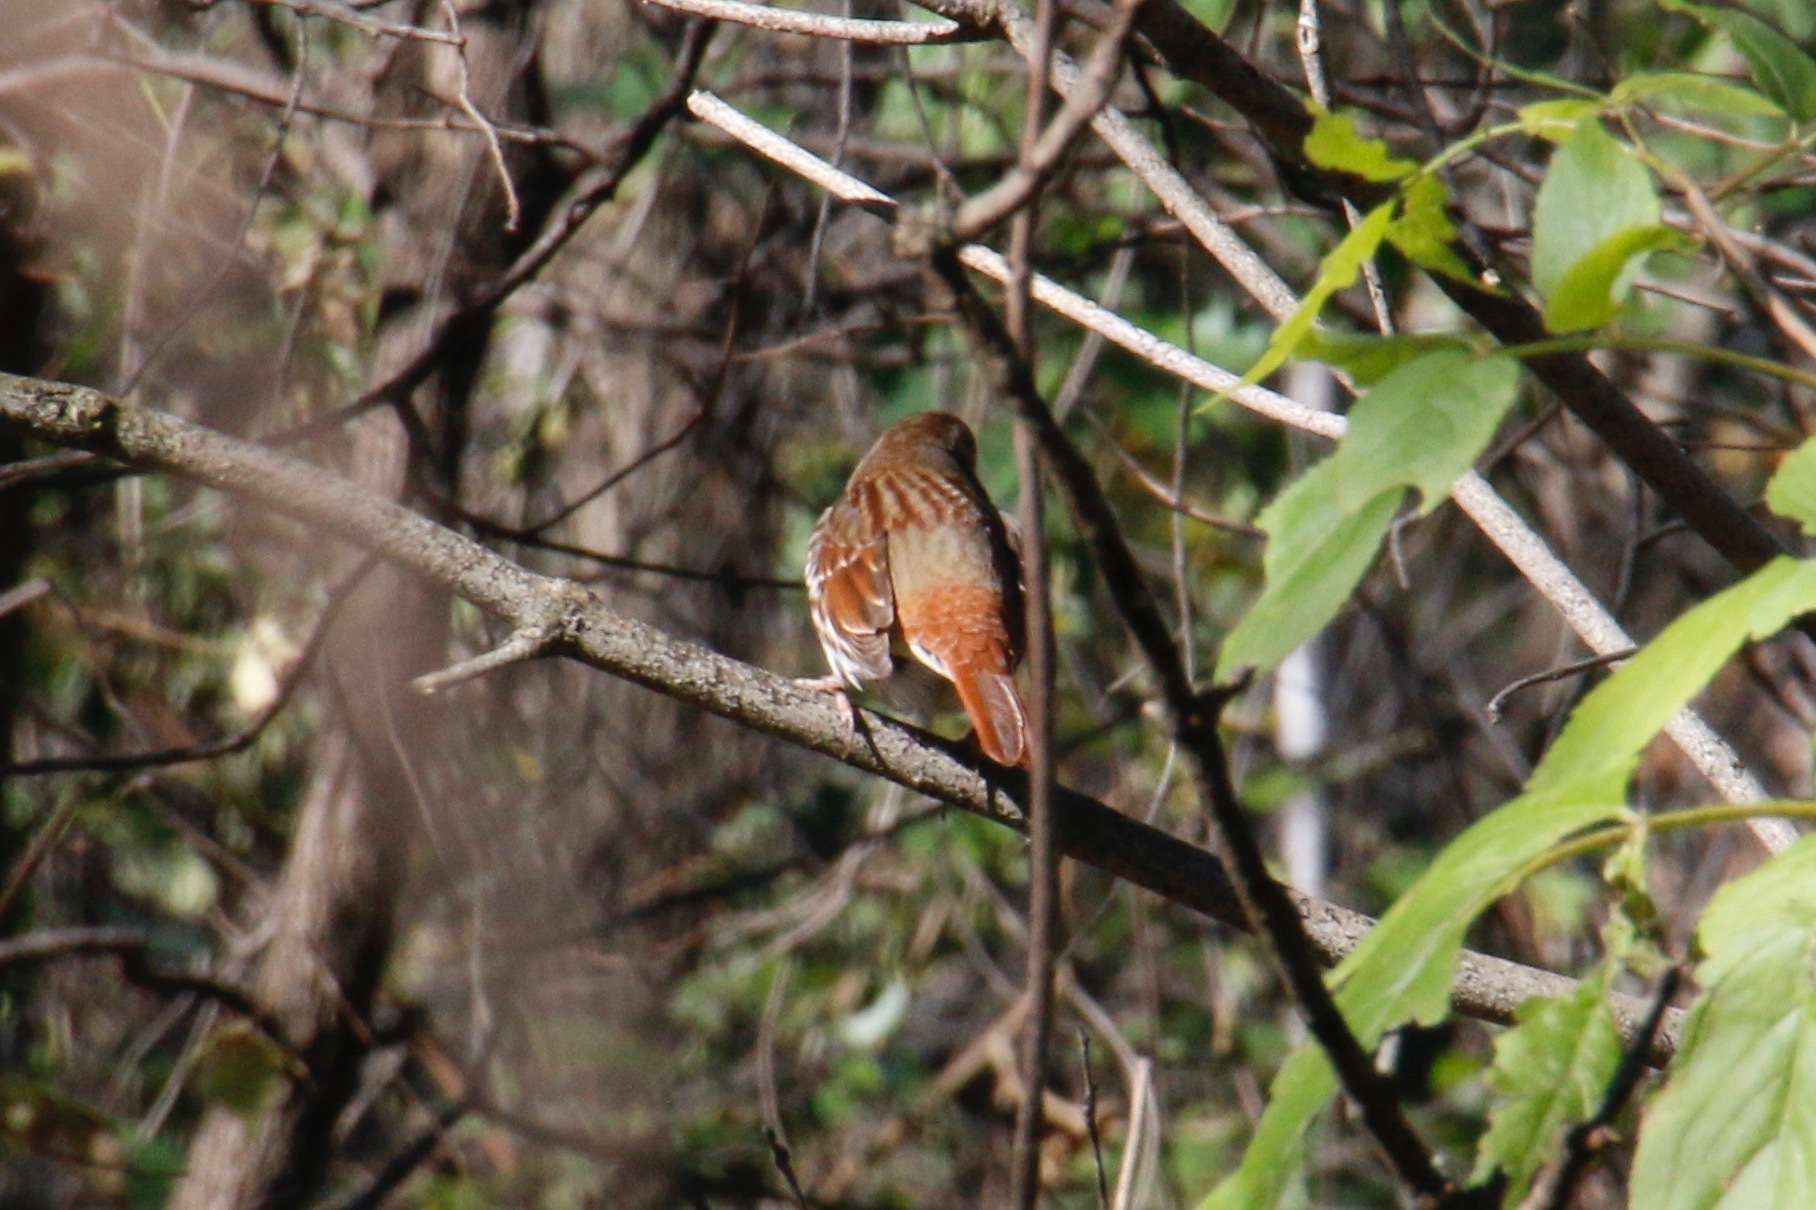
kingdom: Animalia
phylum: Chordata
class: Aves
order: Passeriformes
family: Passerellidae
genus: Passerella
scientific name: Passerella iliaca
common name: Fox sparrow
